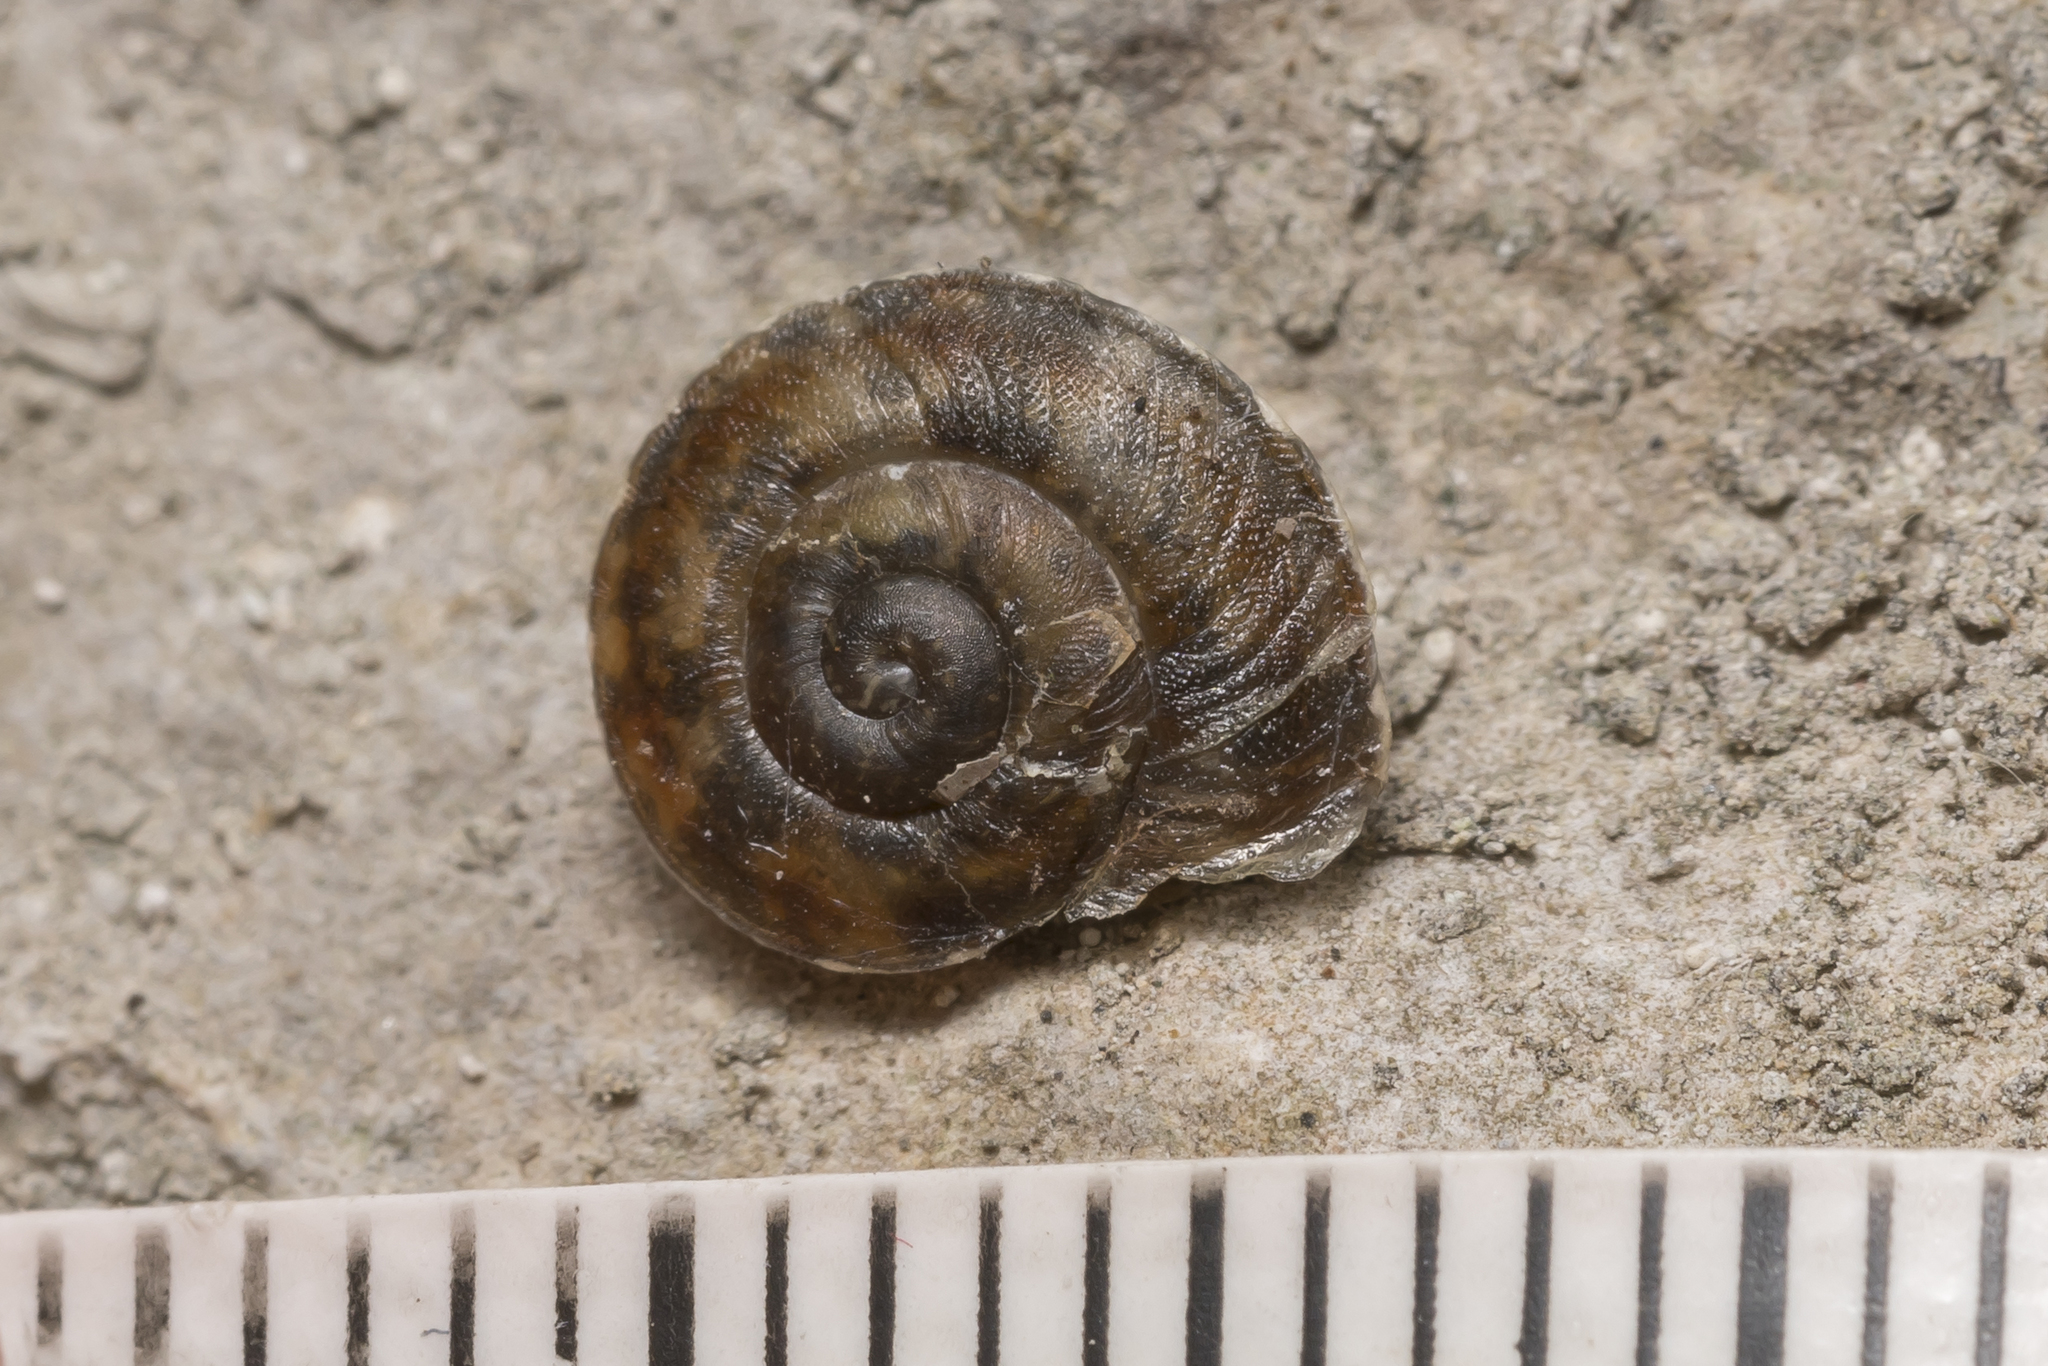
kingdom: Animalia
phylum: Mollusca
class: Gastropoda
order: Stylommatophora
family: Helicidae
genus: Helicigona
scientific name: Helicigona lapicida
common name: Lapidary snail
